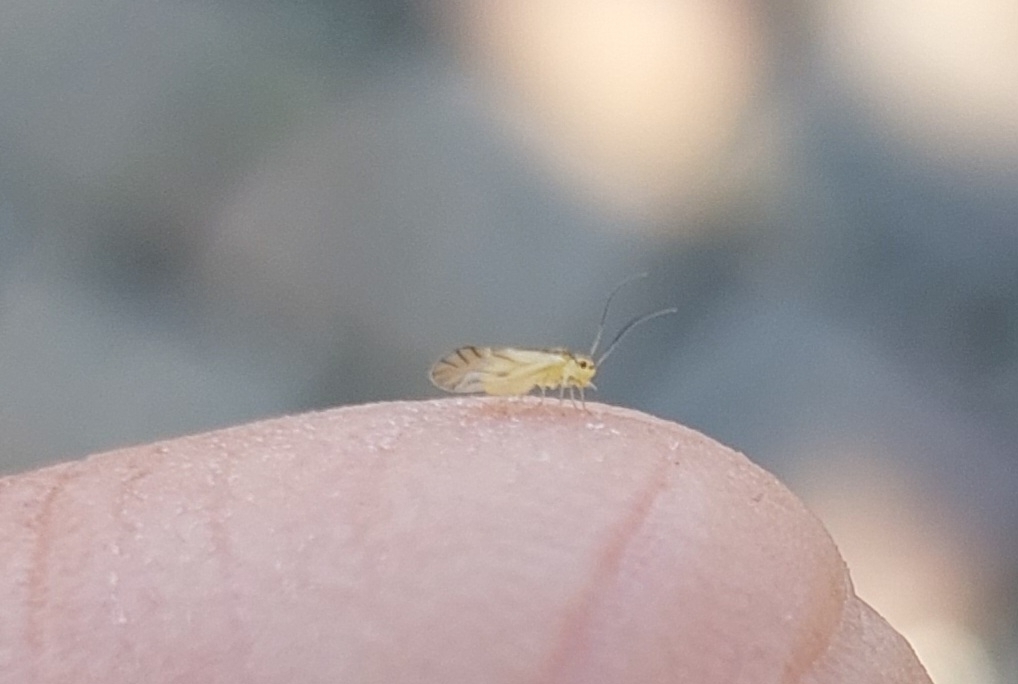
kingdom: Animalia
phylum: Arthropoda
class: Insecta
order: Psocodea
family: Caeciliusidae
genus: Valenzuela
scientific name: Valenzuela flavidus
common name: Yellow barklouse
